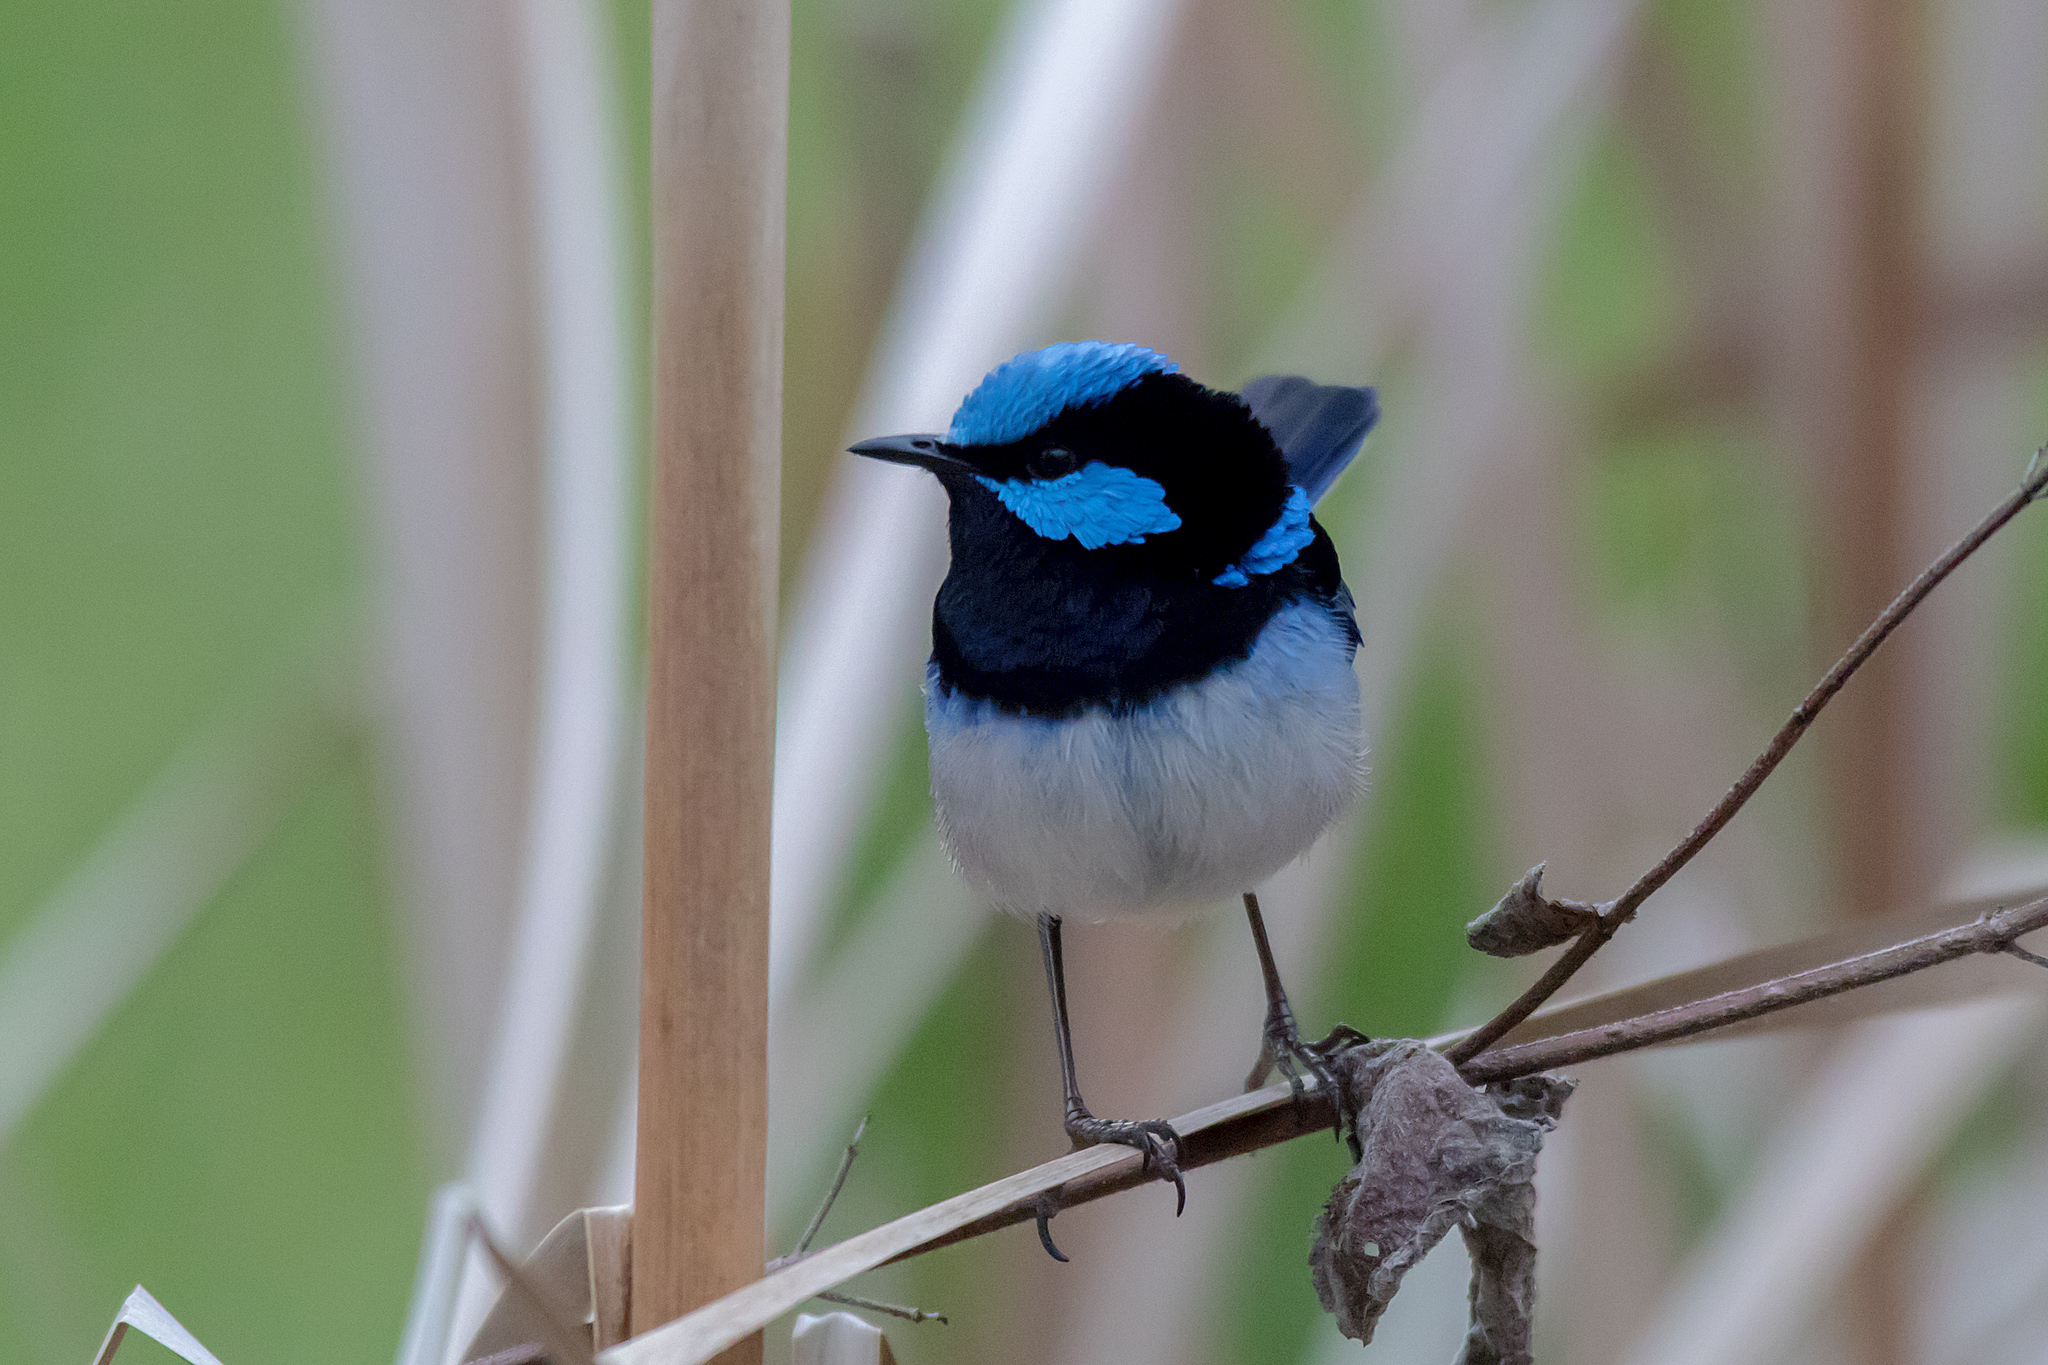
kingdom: Animalia
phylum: Chordata
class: Aves
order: Passeriformes
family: Maluridae
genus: Malurus
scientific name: Malurus cyaneus
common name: Superb fairywren
